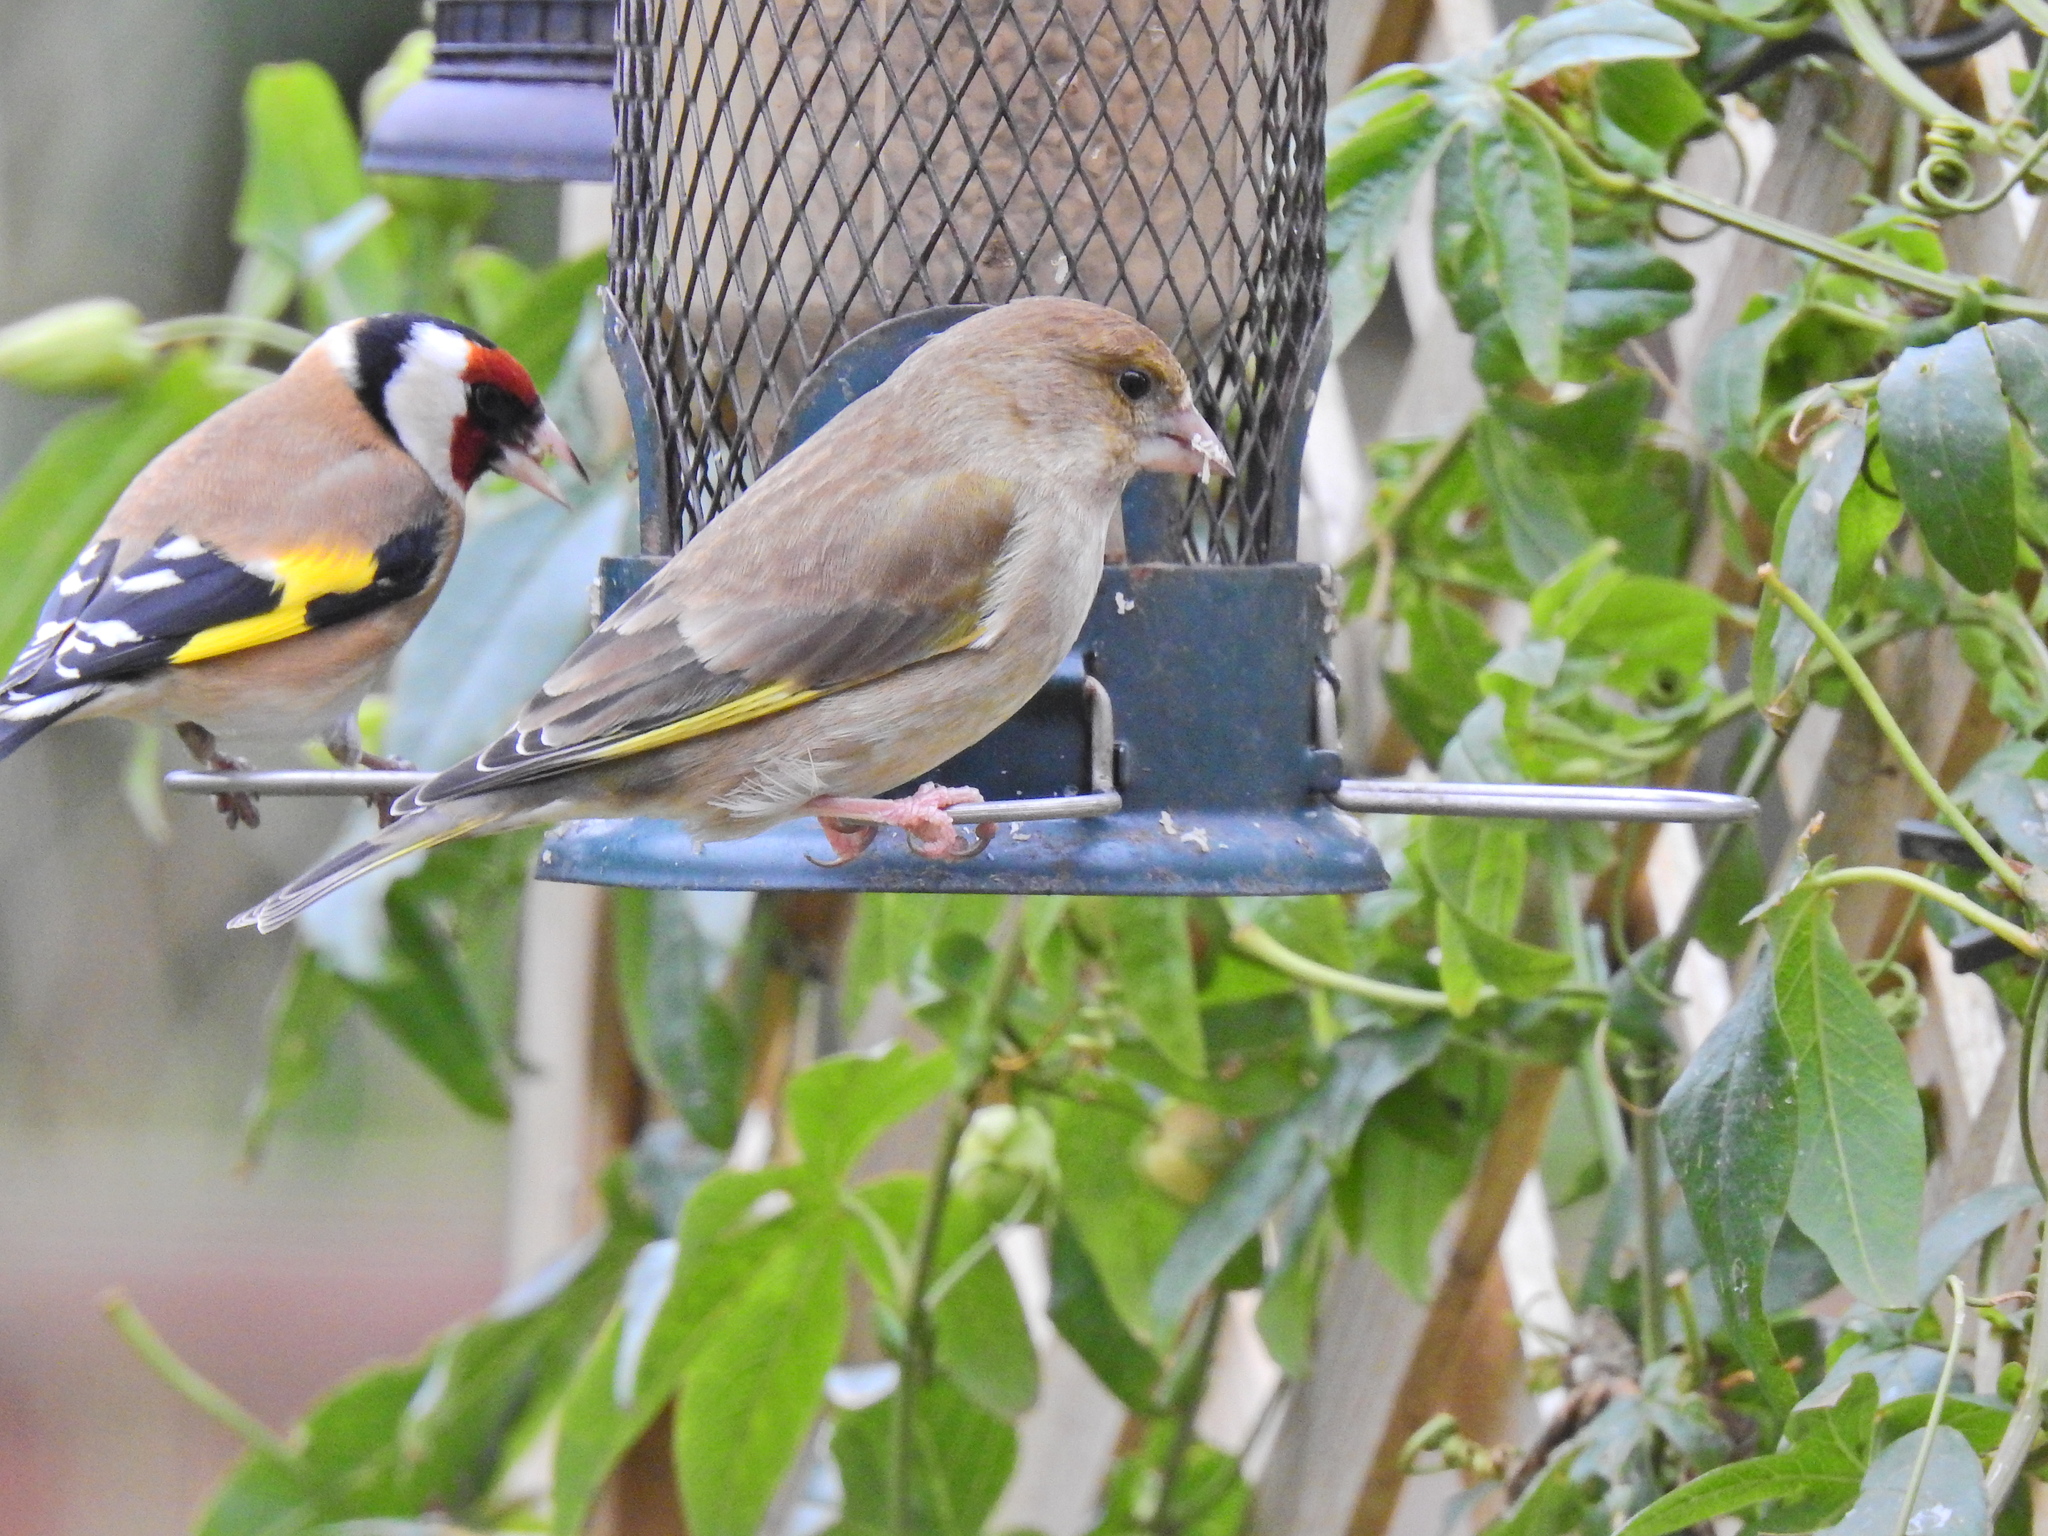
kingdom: Plantae
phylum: Tracheophyta
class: Liliopsida
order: Poales
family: Poaceae
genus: Chloris
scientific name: Chloris chloris
